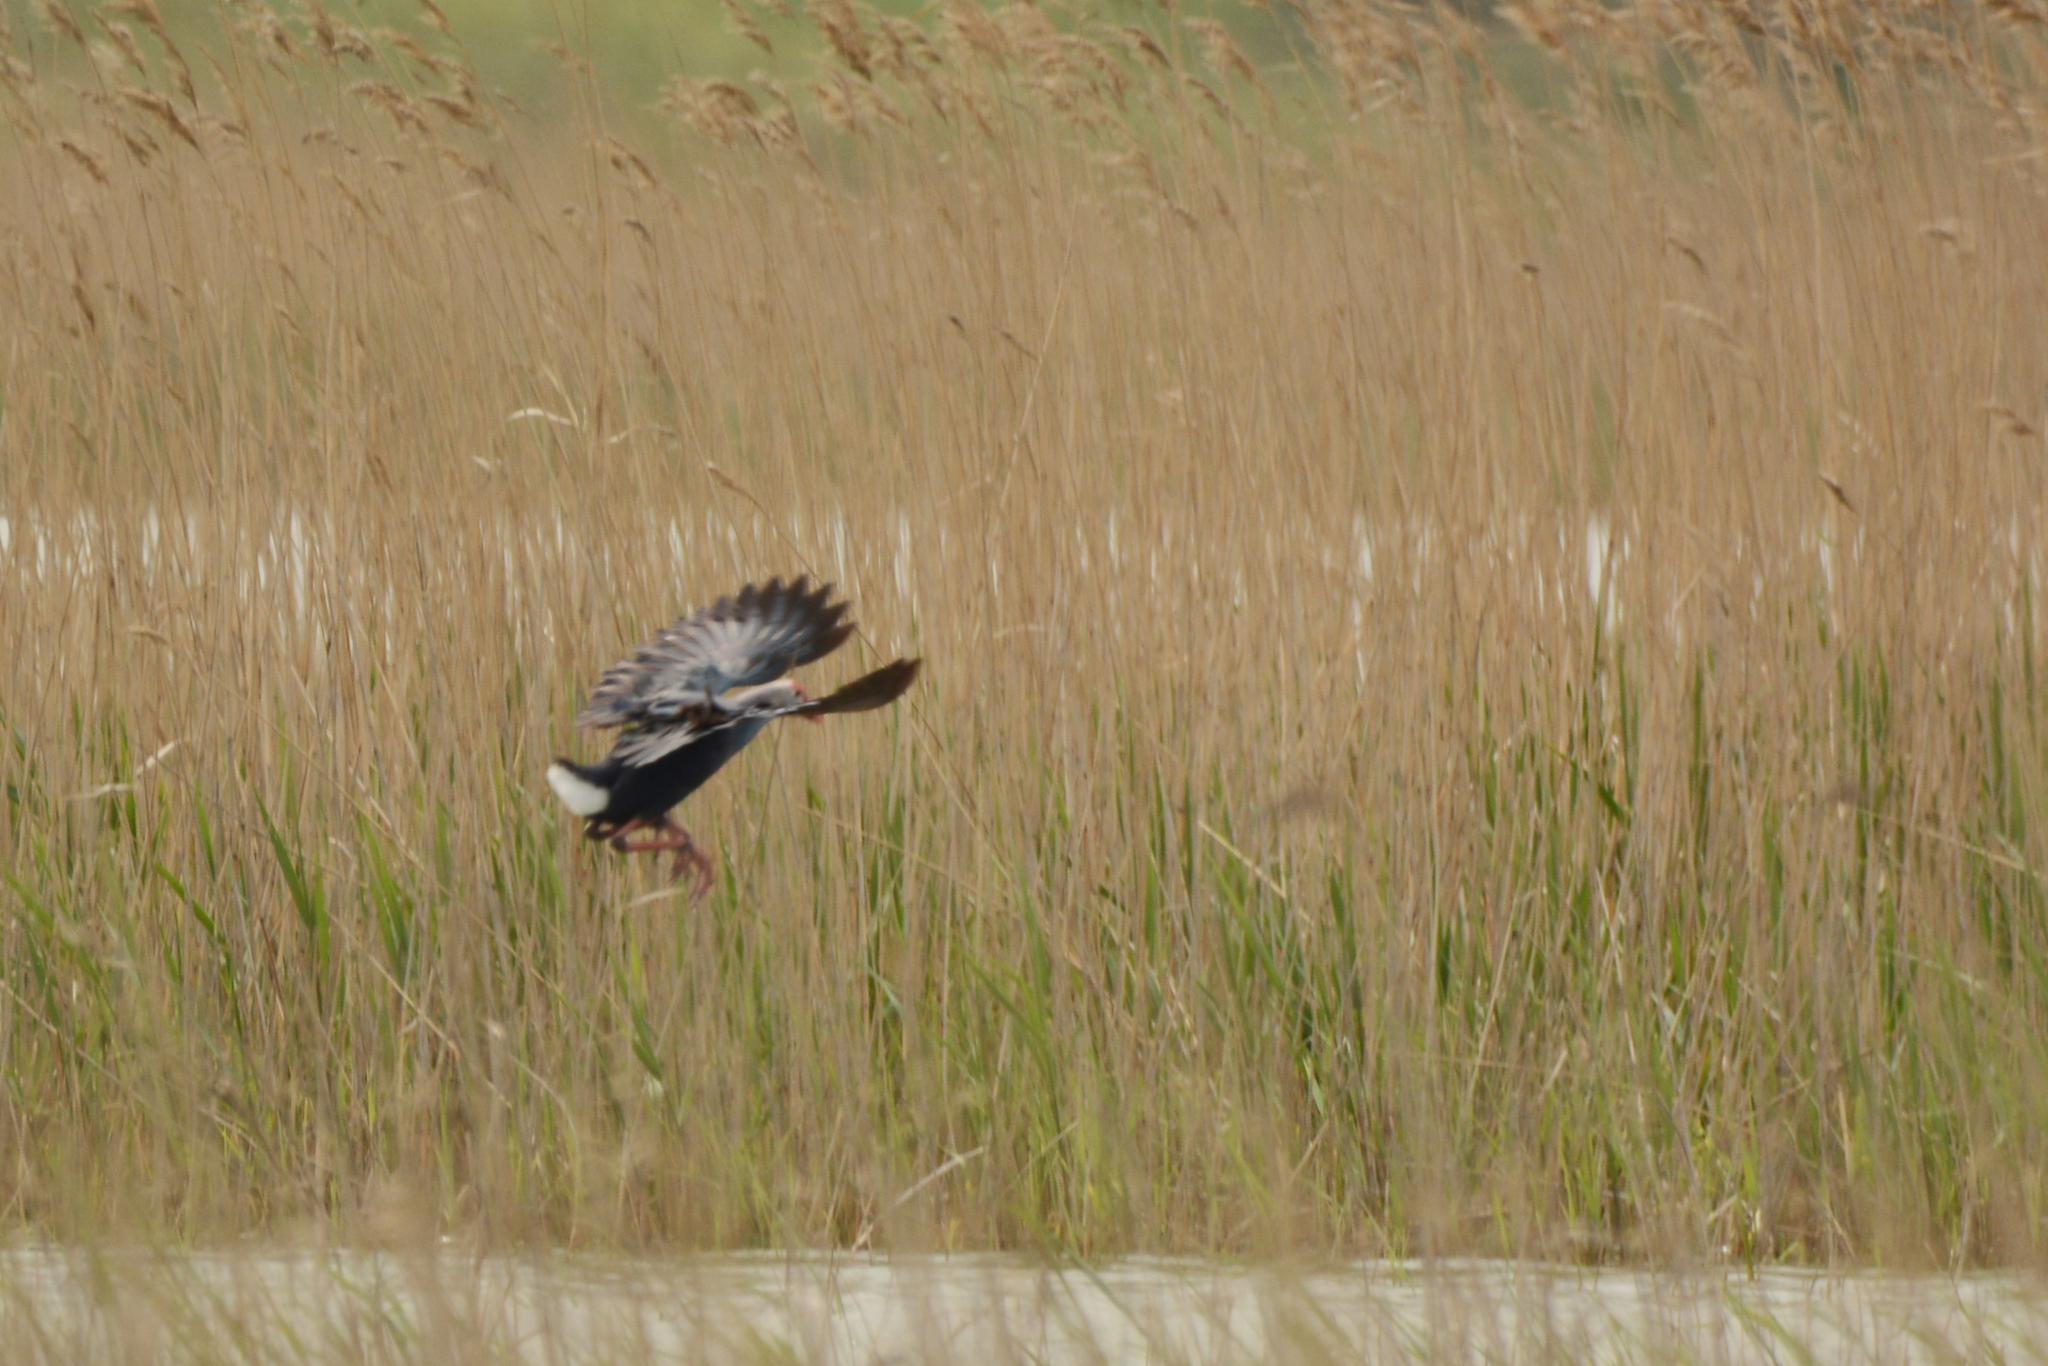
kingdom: Animalia
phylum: Chordata
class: Aves
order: Gruiformes
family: Rallidae
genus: Porphyrio
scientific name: Porphyrio porphyrio
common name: Purple swamphen
